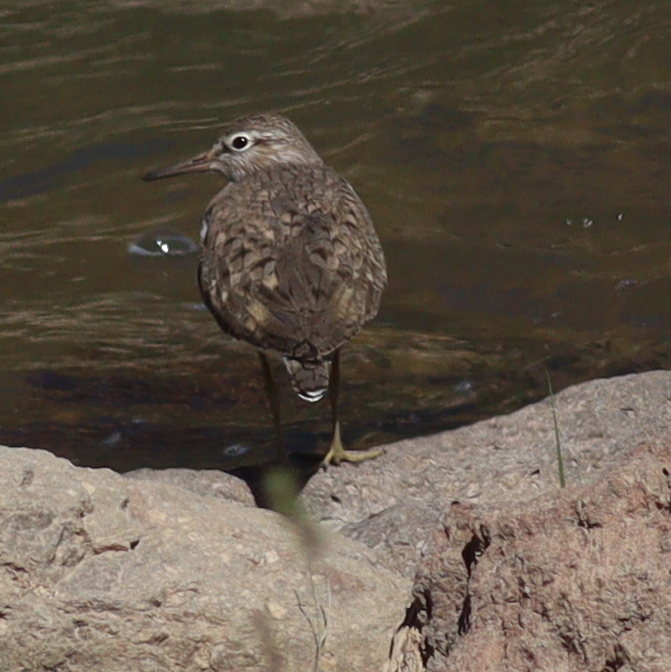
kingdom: Animalia
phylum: Chordata
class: Aves
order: Charadriiformes
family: Scolopacidae
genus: Actitis
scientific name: Actitis hypoleucos
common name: Common sandpiper
